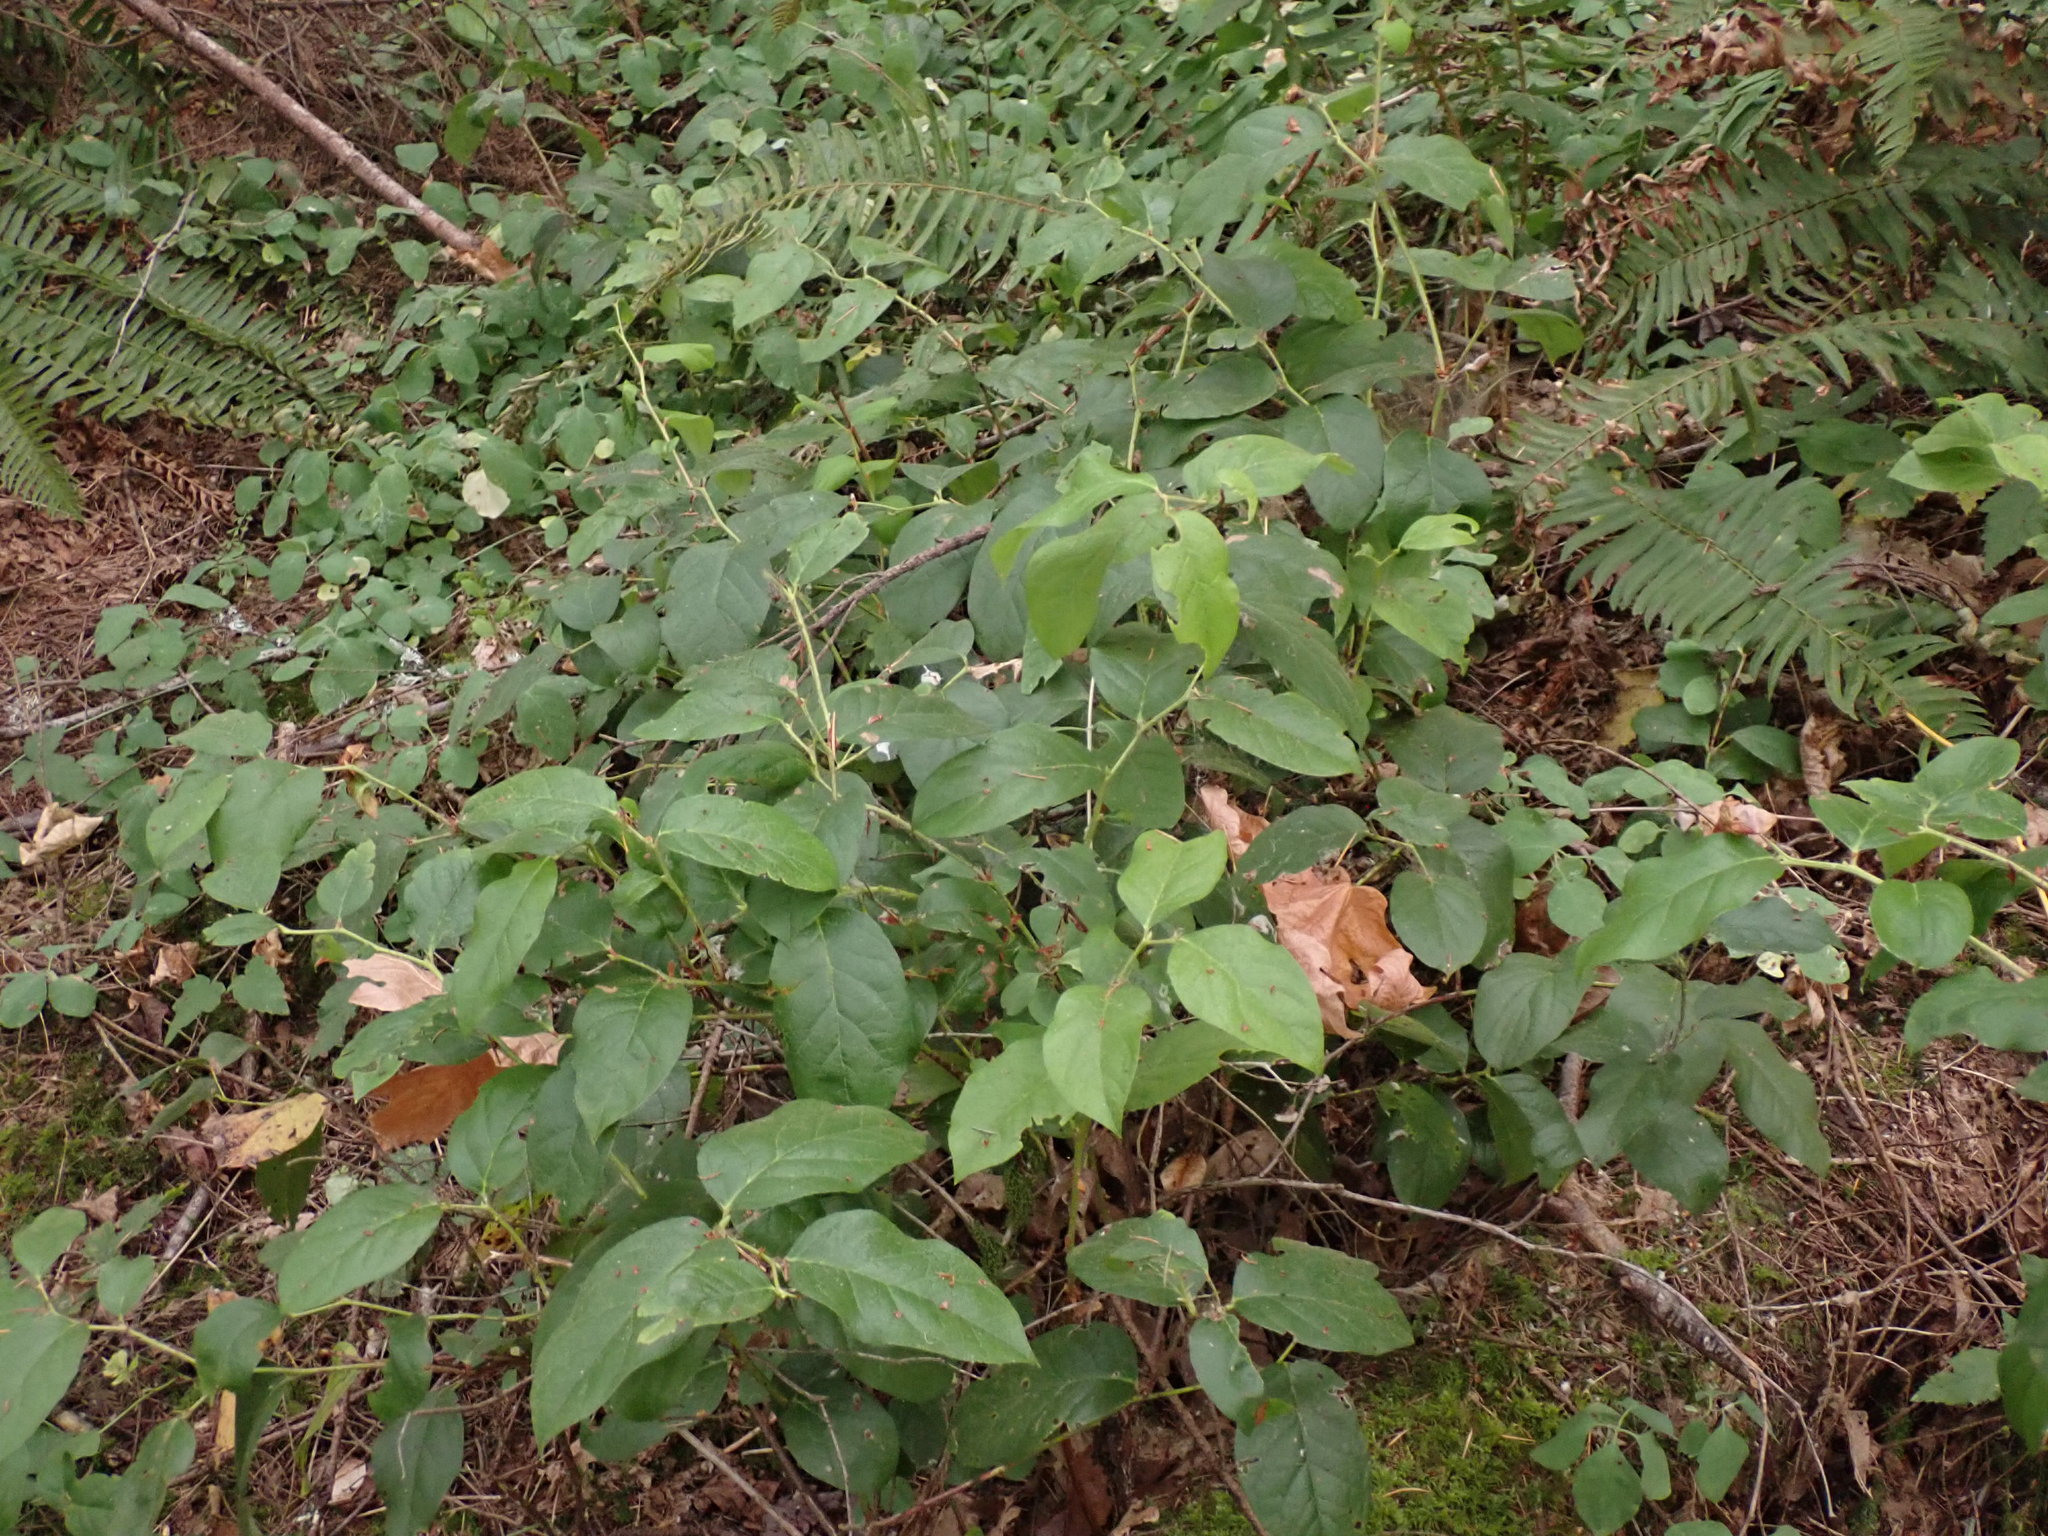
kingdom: Plantae
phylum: Tracheophyta
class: Magnoliopsida
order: Ericales
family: Ericaceae
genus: Gaultheria
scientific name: Gaultheria shallon
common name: Shallon
